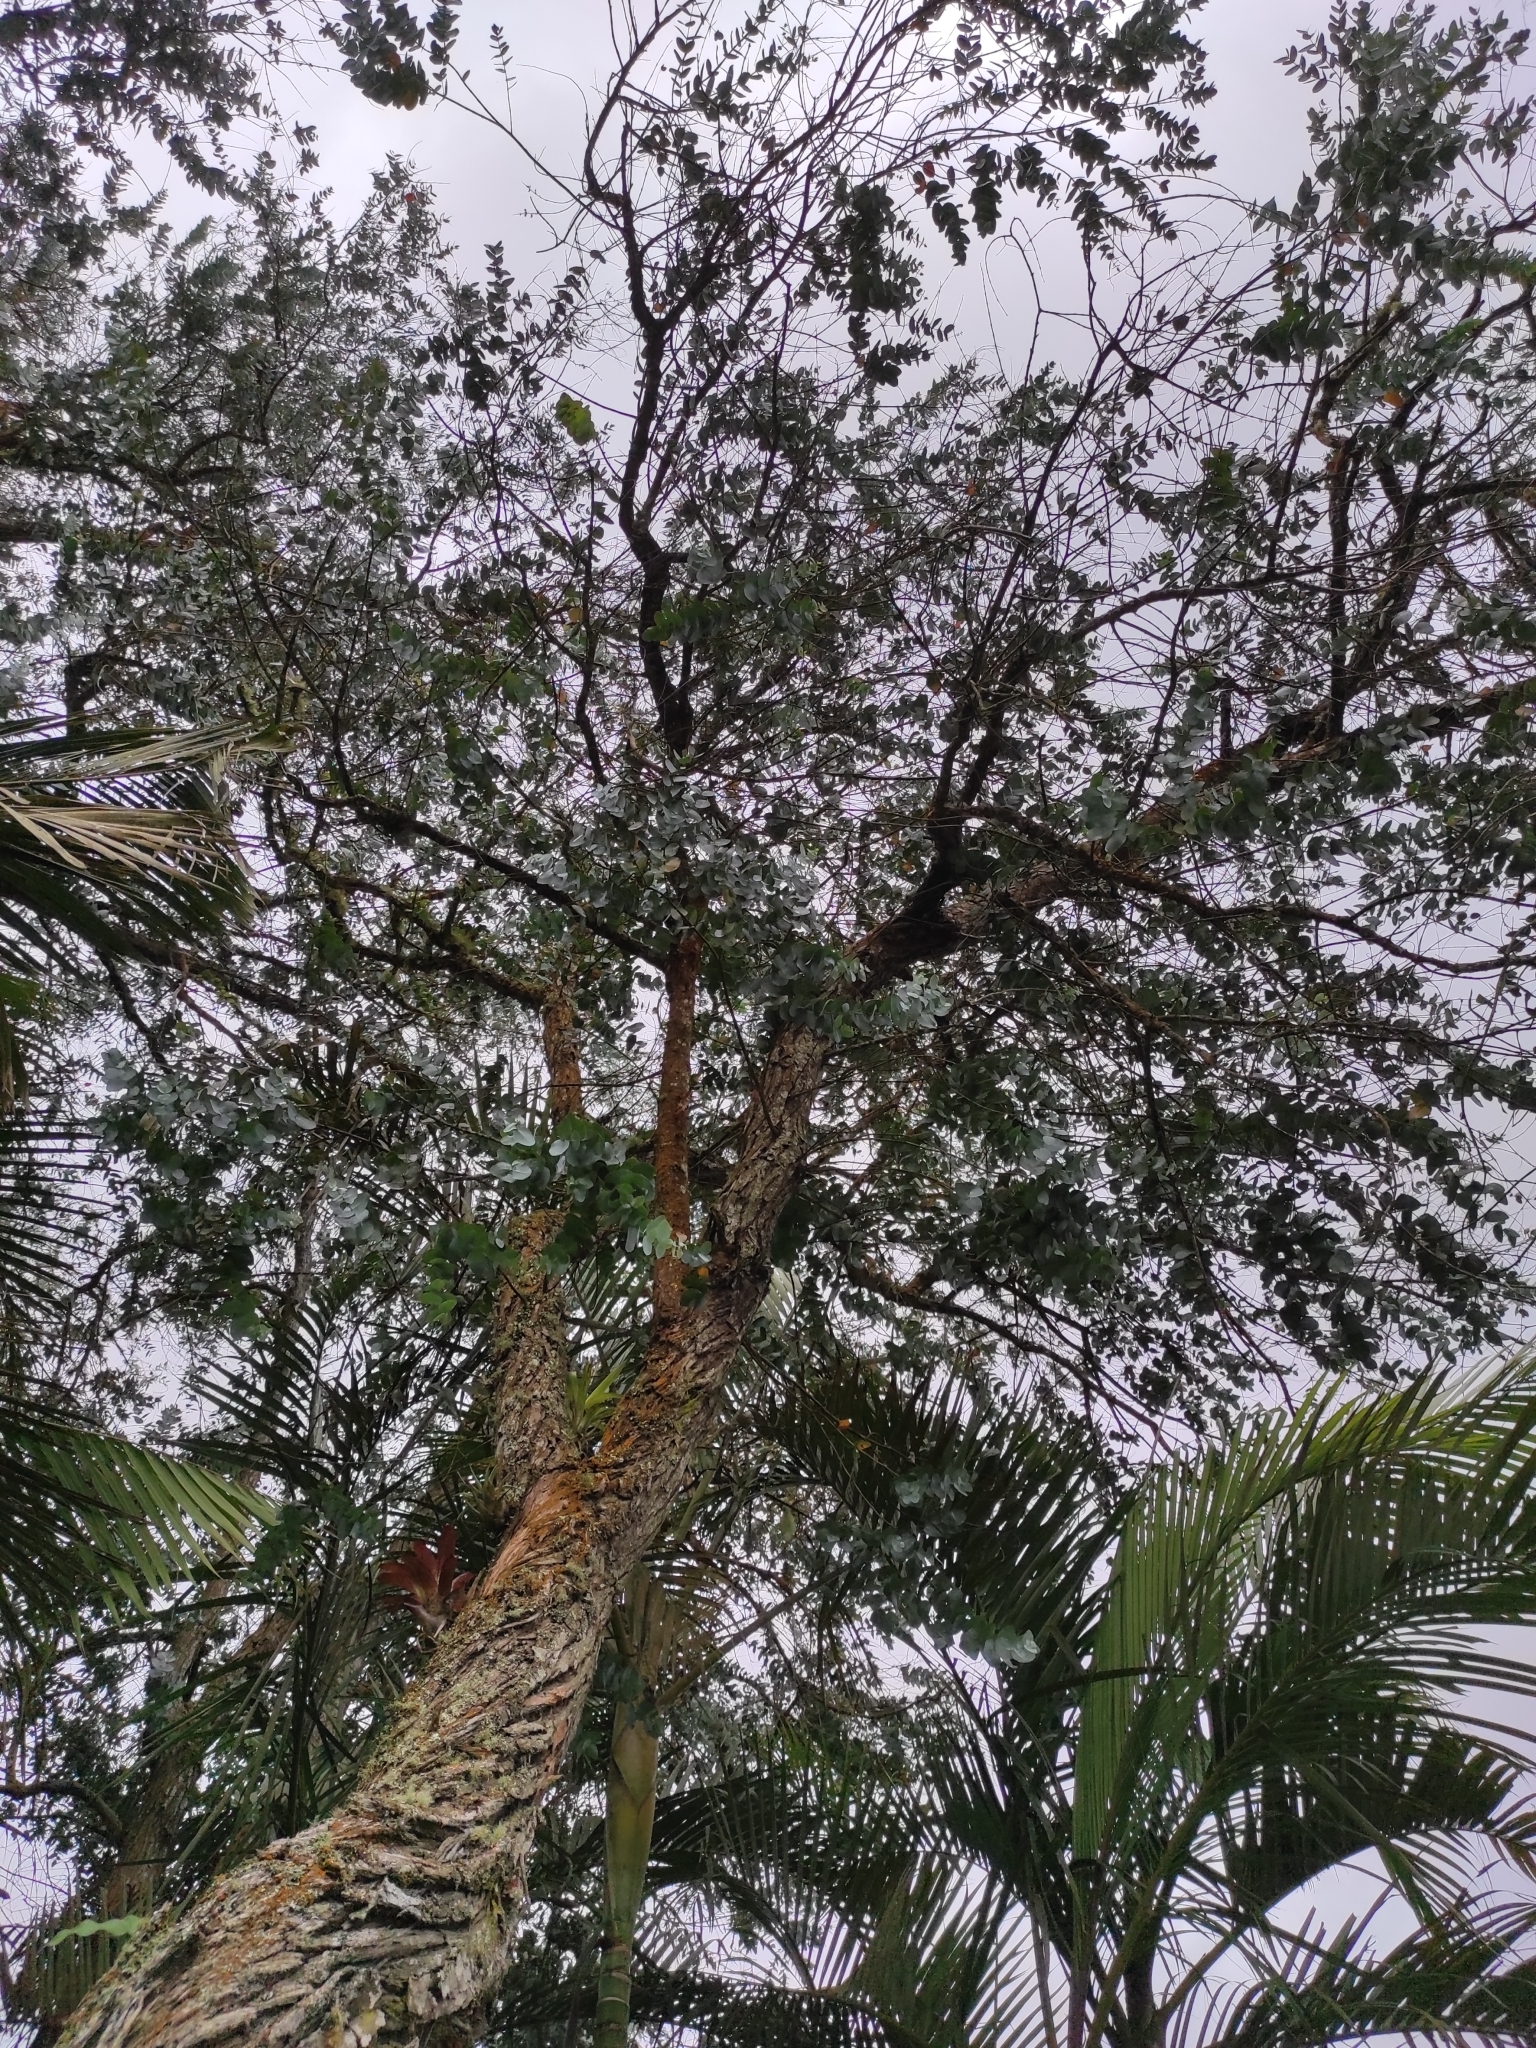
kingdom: Plantae
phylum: Tracheophyta
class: Magnoliopsida
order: Myrtales
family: Myrtaceae
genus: Eucalyptus
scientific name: Eucalyptus cinerea
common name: Argyle apple
